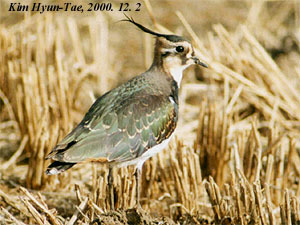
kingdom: Animalia
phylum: Chordata
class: Aves
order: Charadriiformes
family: Charadriidae
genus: Vanellus
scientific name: Vanellus vanellus
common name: Northern lapwing
